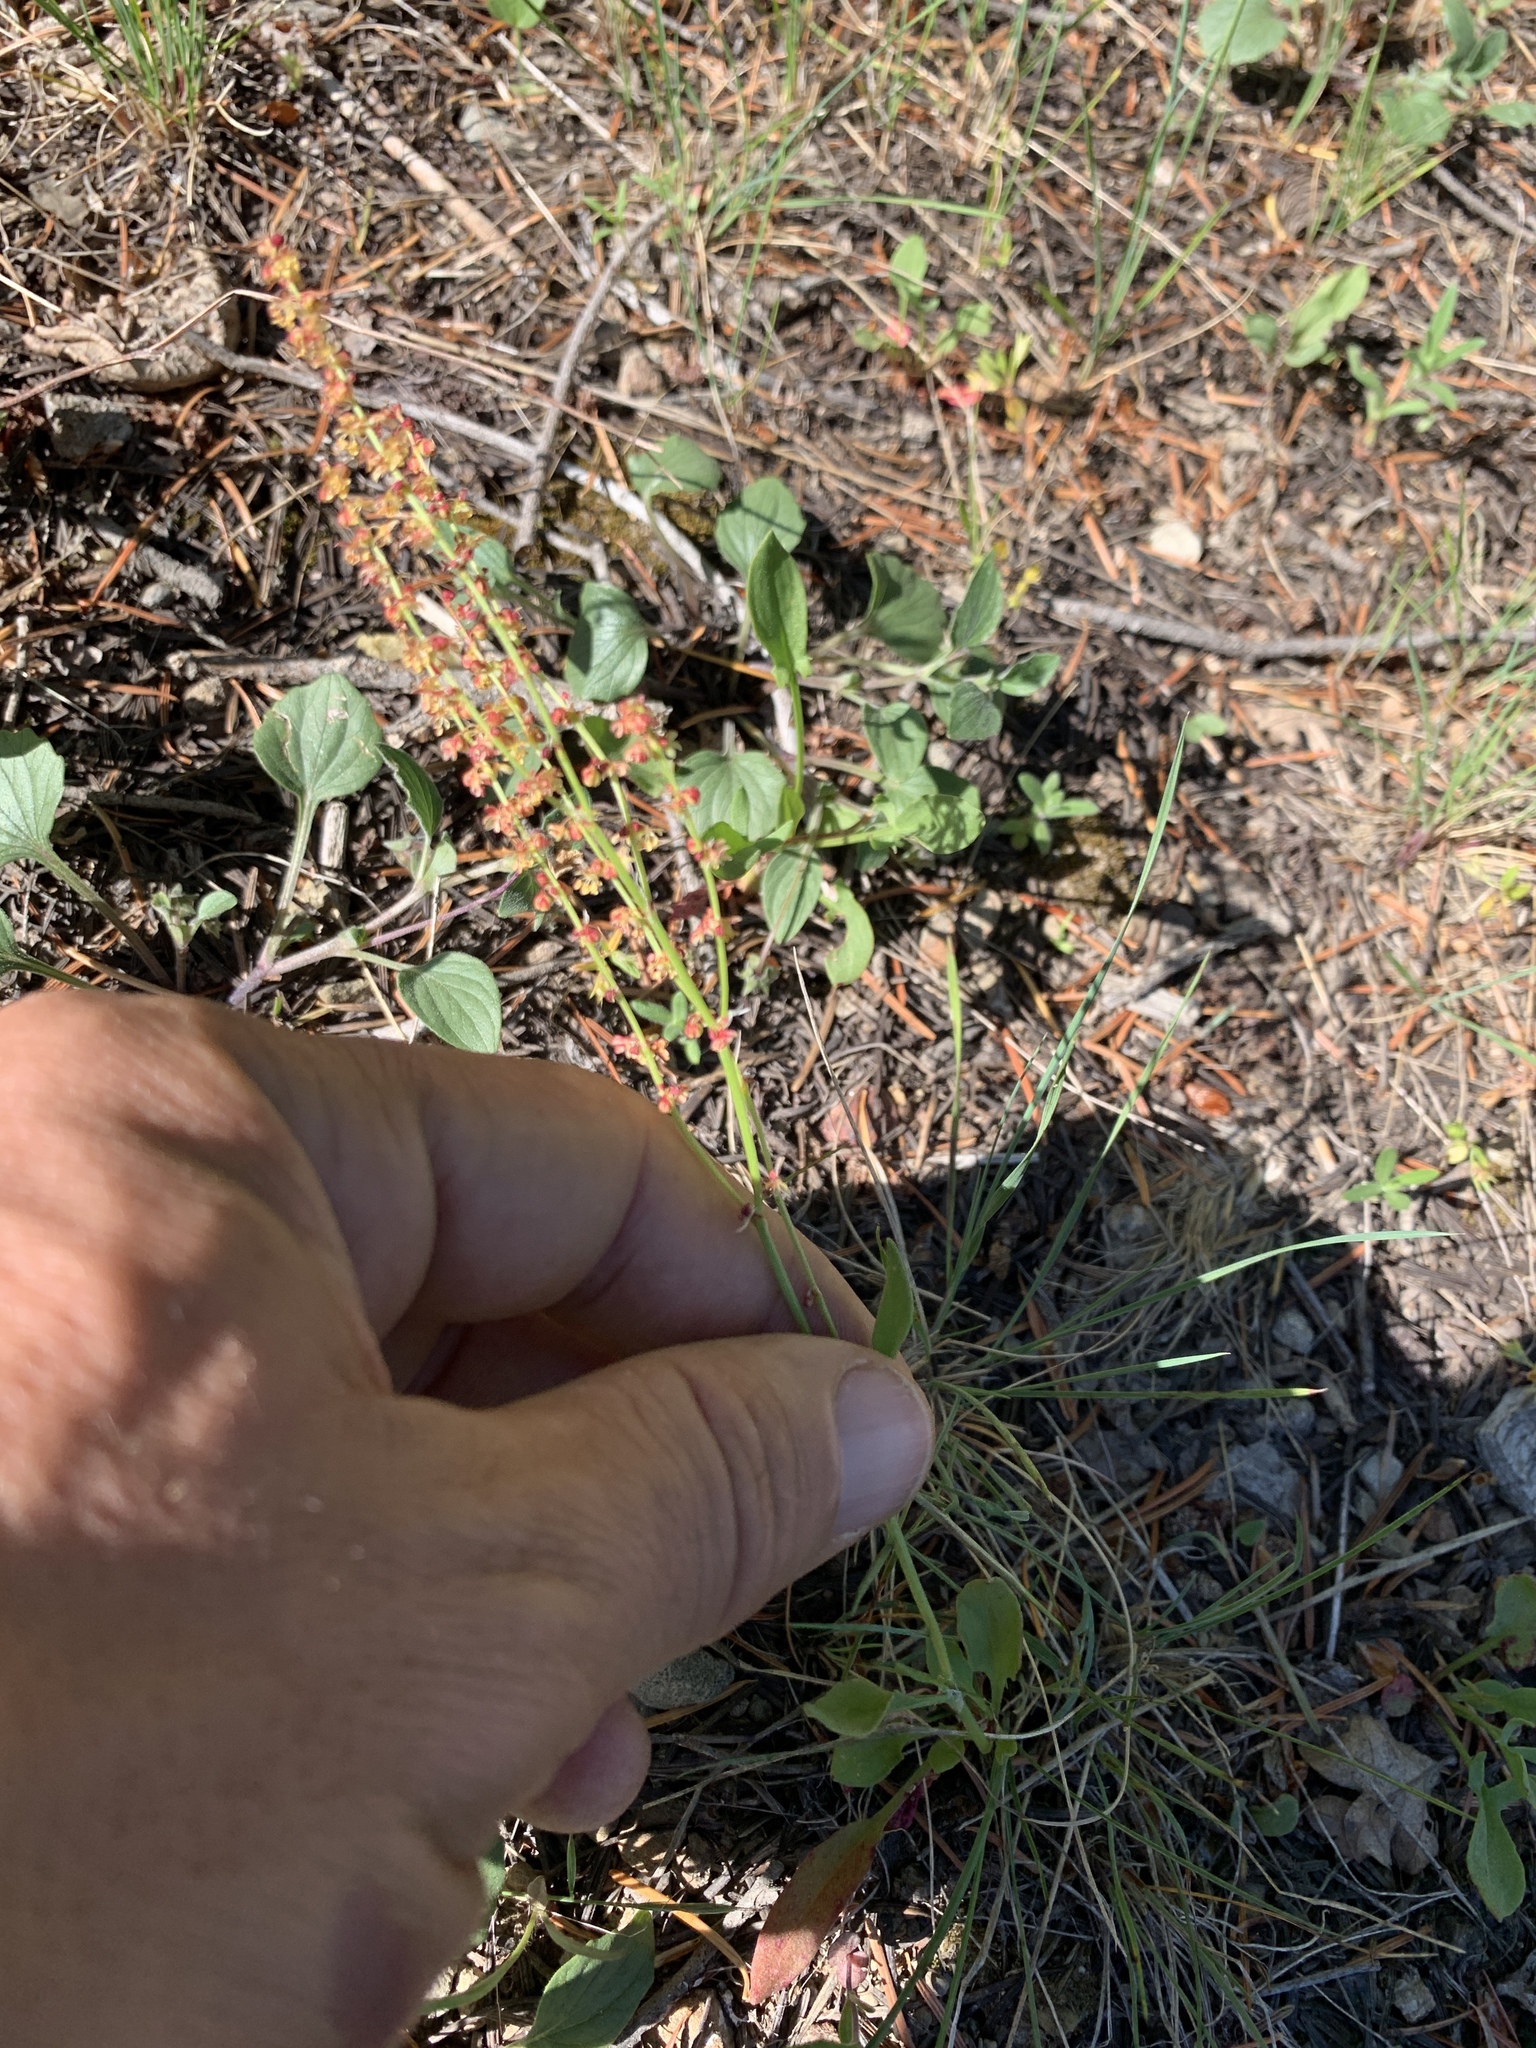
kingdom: Plantae
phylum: Tracheophyta
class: Magnoliopsida
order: Caryophyllales
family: Polygonaceae
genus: Rumex
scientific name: Rumex acetosella
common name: Common sheep sorrel
